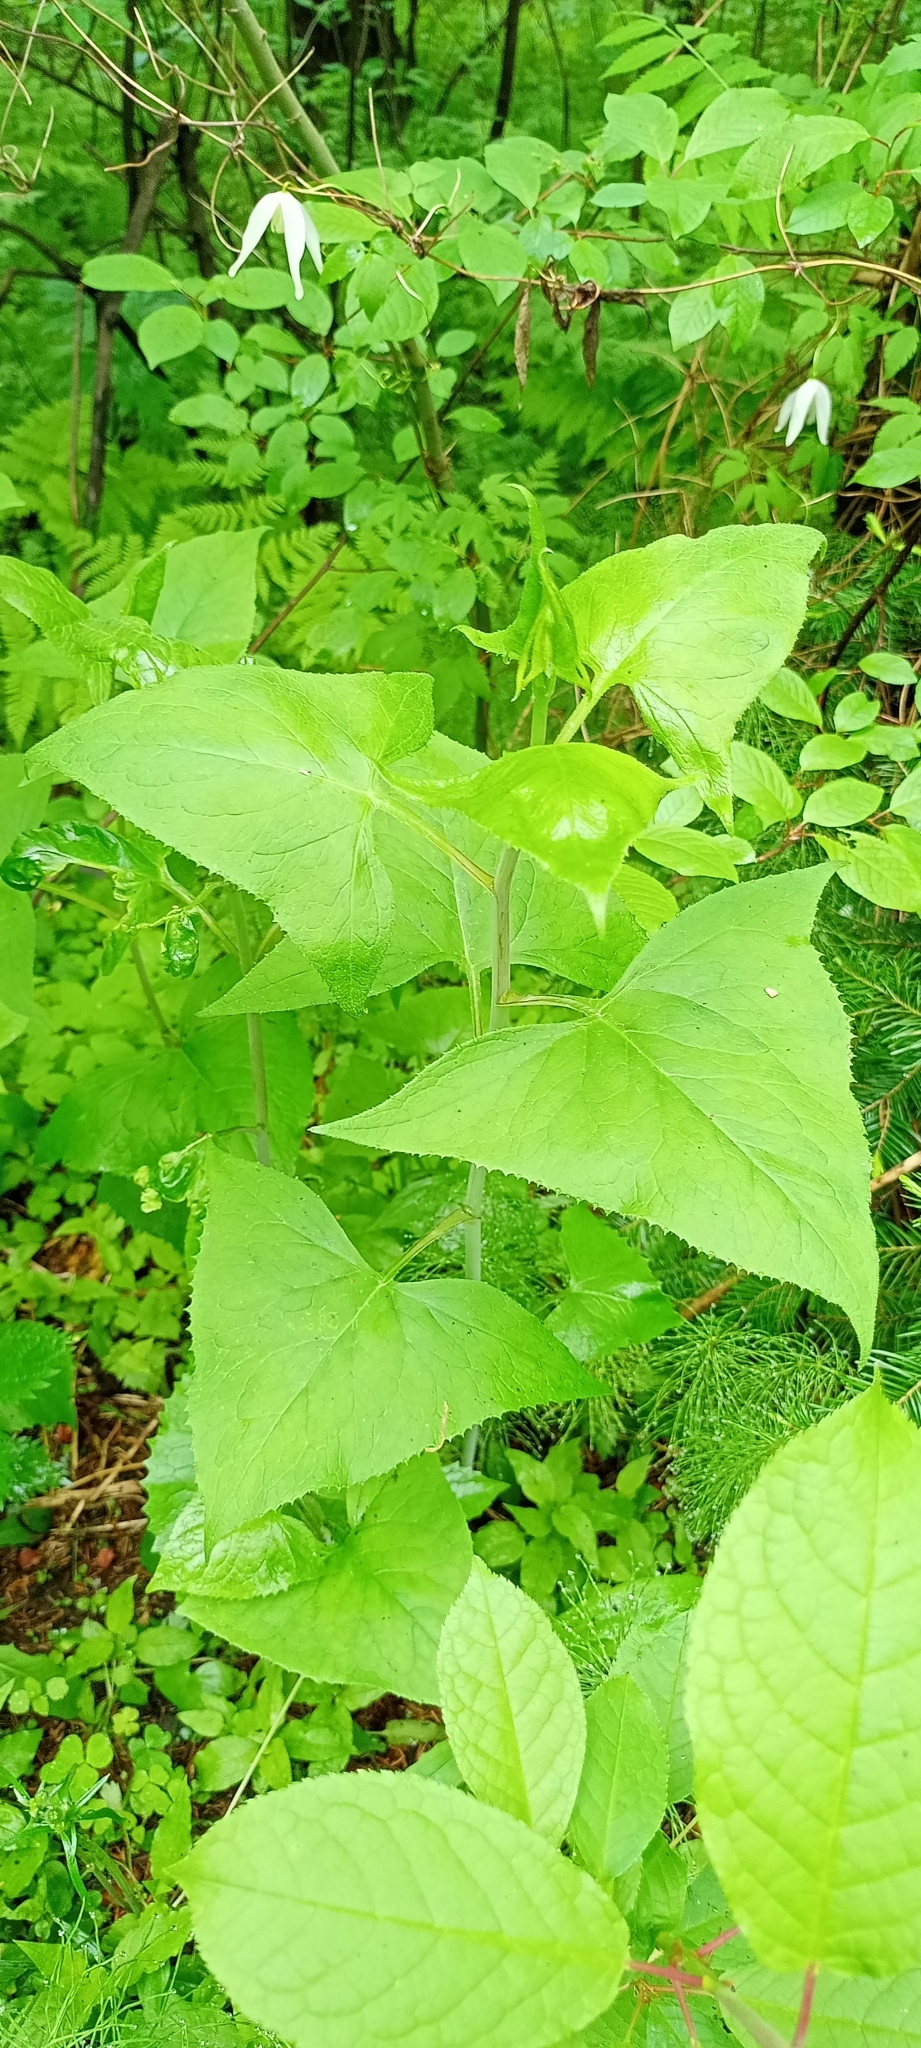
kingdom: Plantae
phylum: Tracheophyta
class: Magnoliopsida
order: Asterales
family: Asteraceae
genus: Parasenecio
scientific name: Parasenecio hastatus
